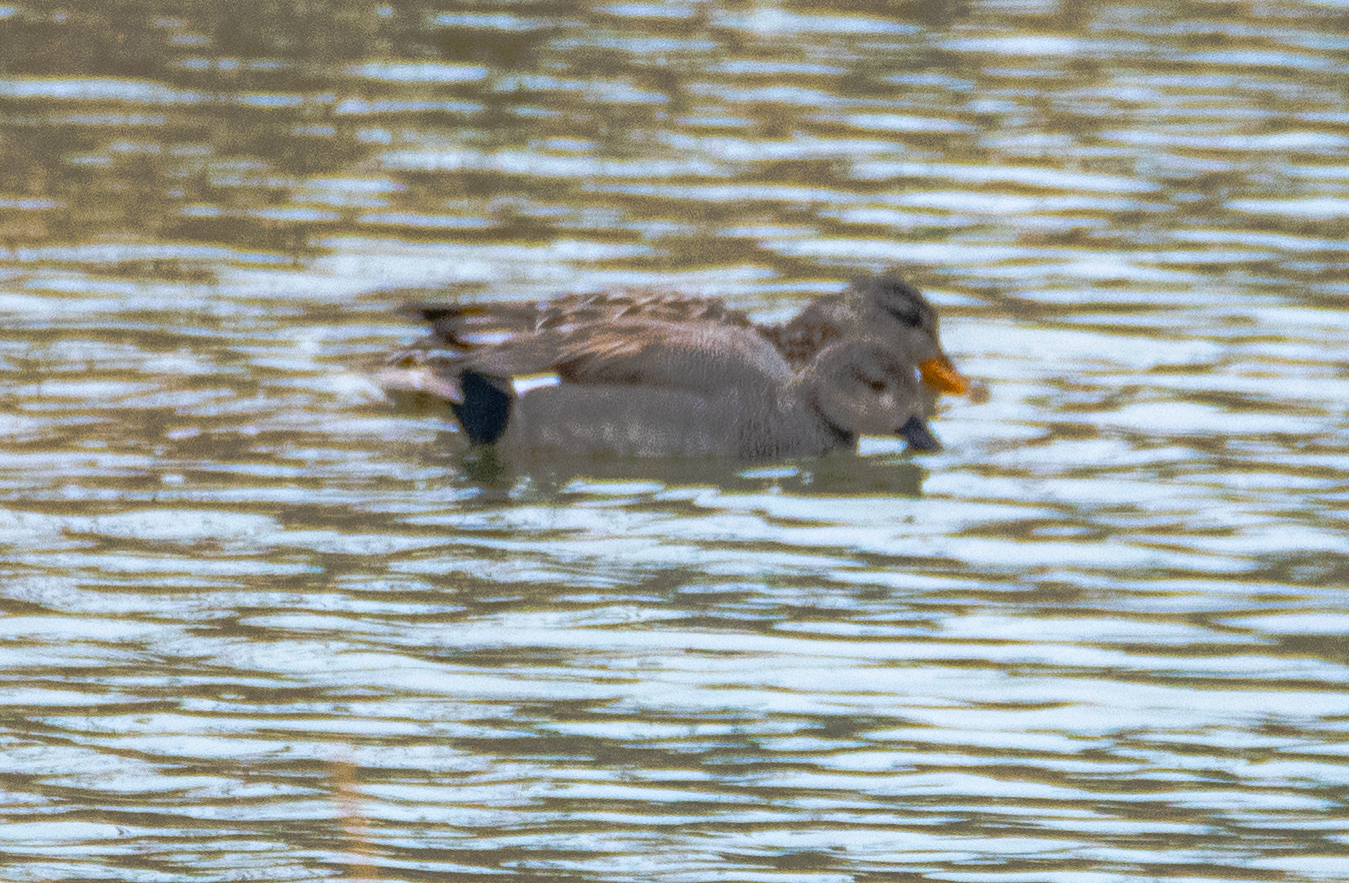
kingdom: Animalia
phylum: Chordata
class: Aves
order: Anseriformes
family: Anatidae
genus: Mareca
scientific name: Mareca strepera
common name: Gadwall
